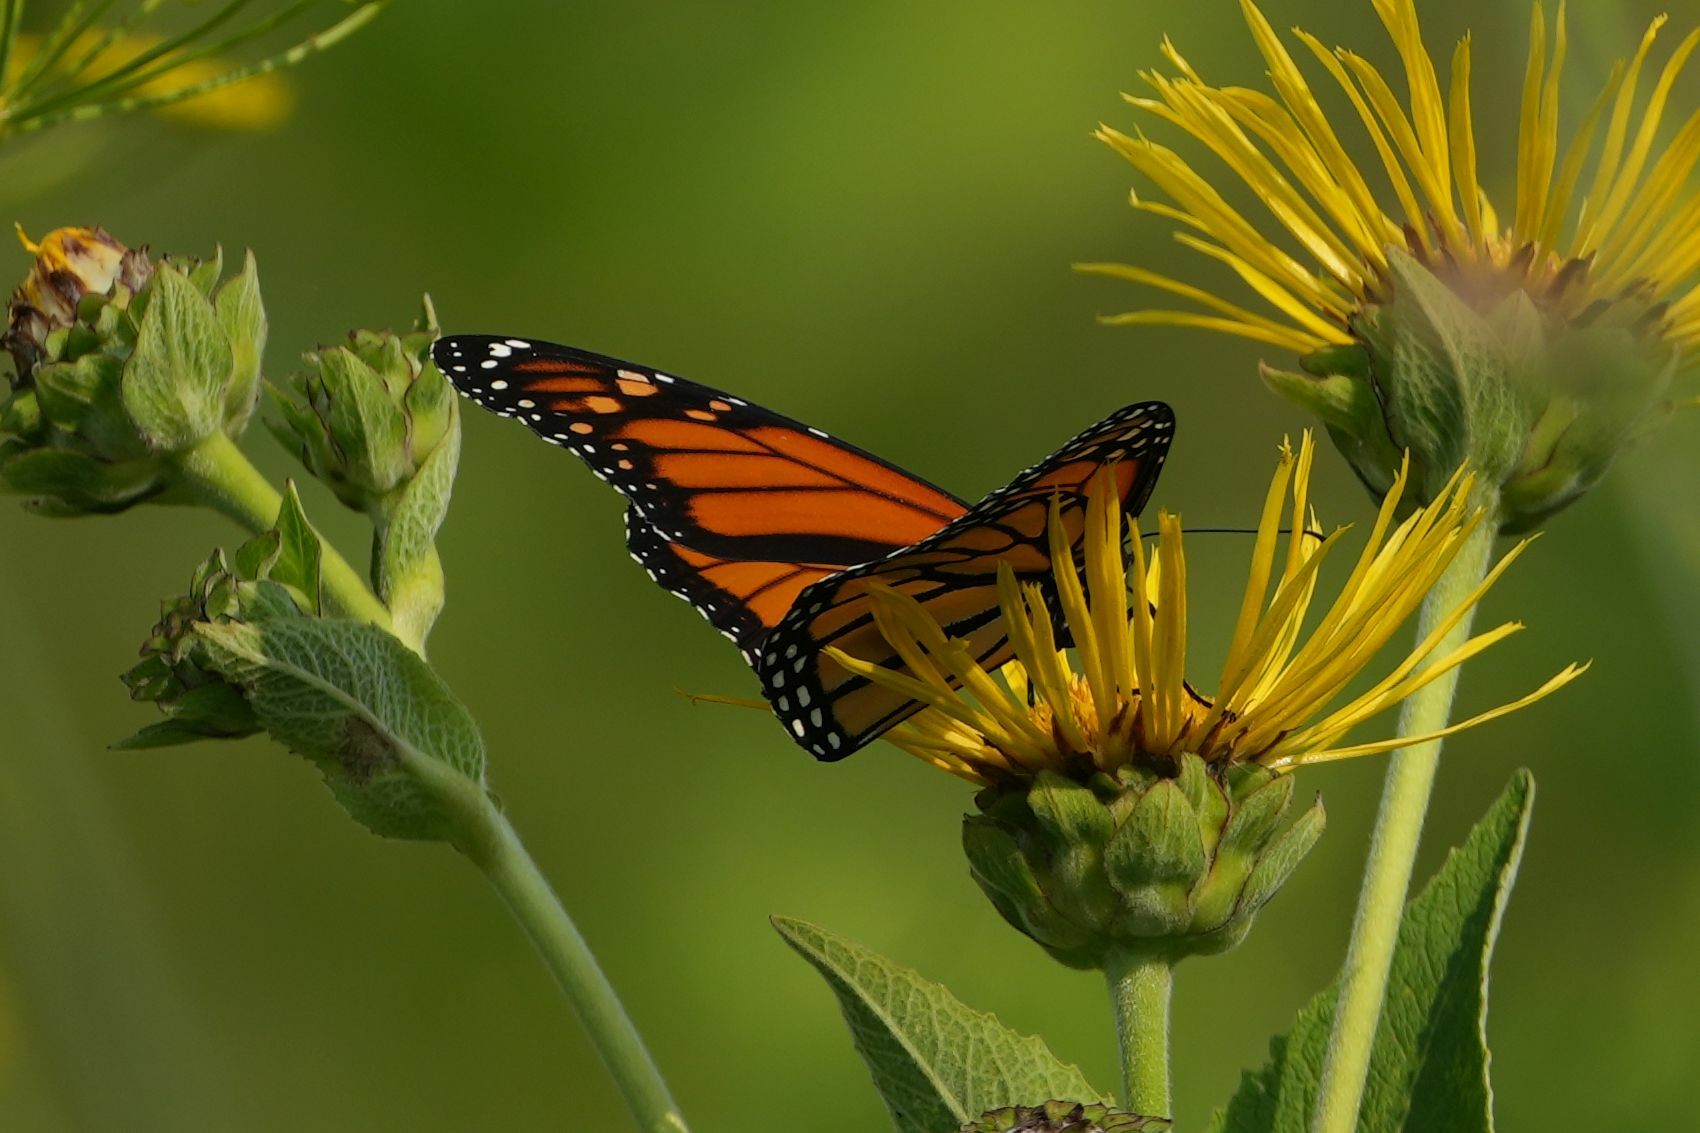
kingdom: Animalia
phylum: Arthropoda
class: Insecta
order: Lepidoptera
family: Nymphalidae
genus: Danaus
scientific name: Danaus plexippus
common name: Monarch
